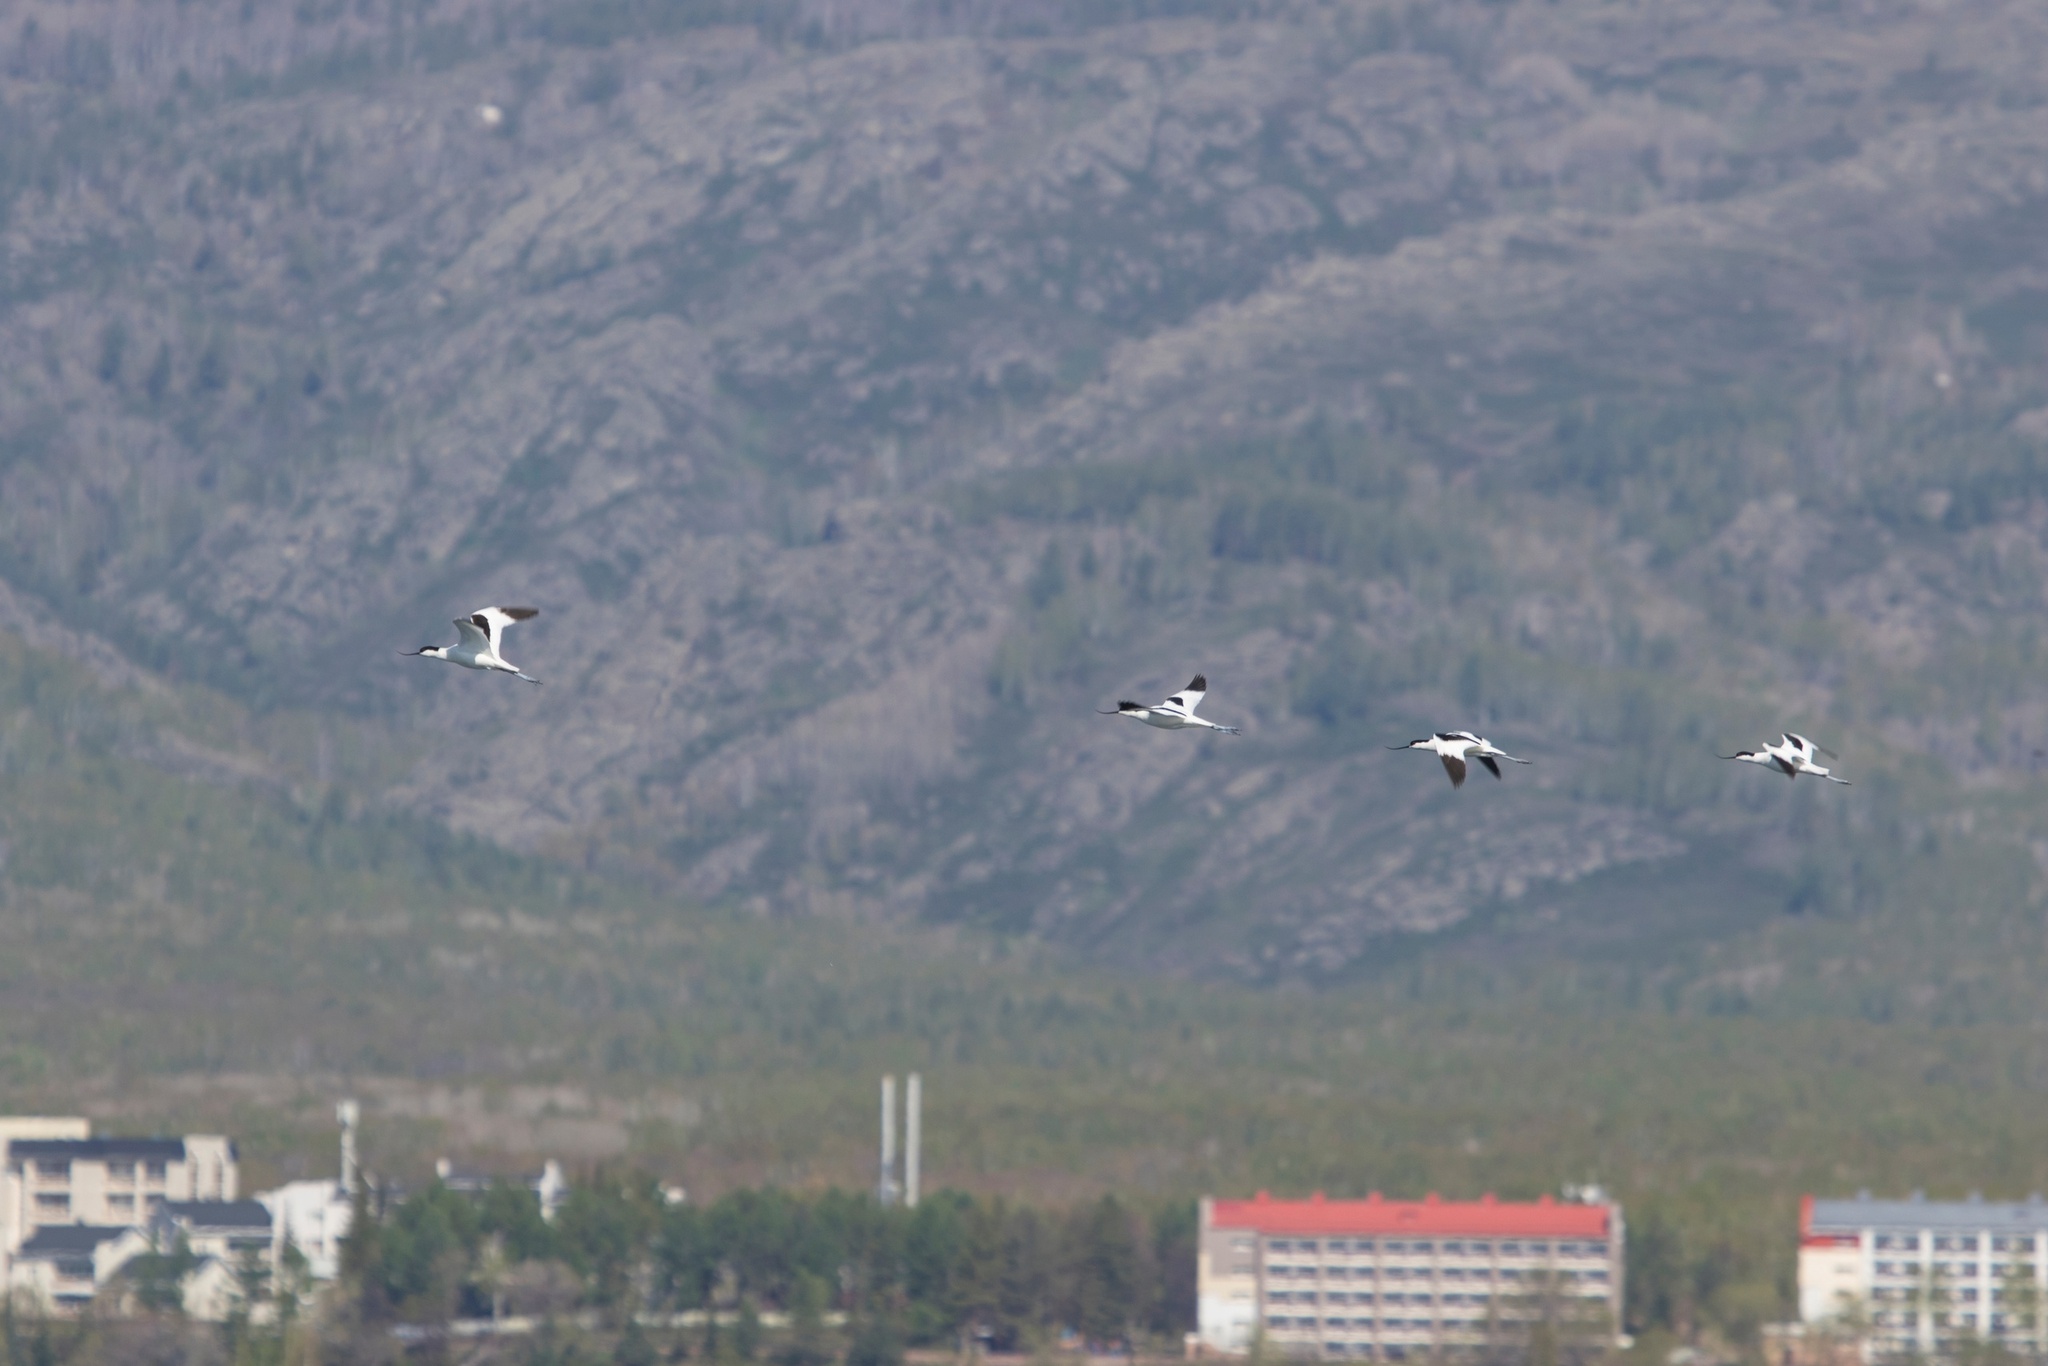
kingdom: Animalia
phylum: Chordata
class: Aves
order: Charadriiformes
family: Recurvirostridae
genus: Recurvirostra
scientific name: Recurvirostra avosetta
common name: Pied avocet
